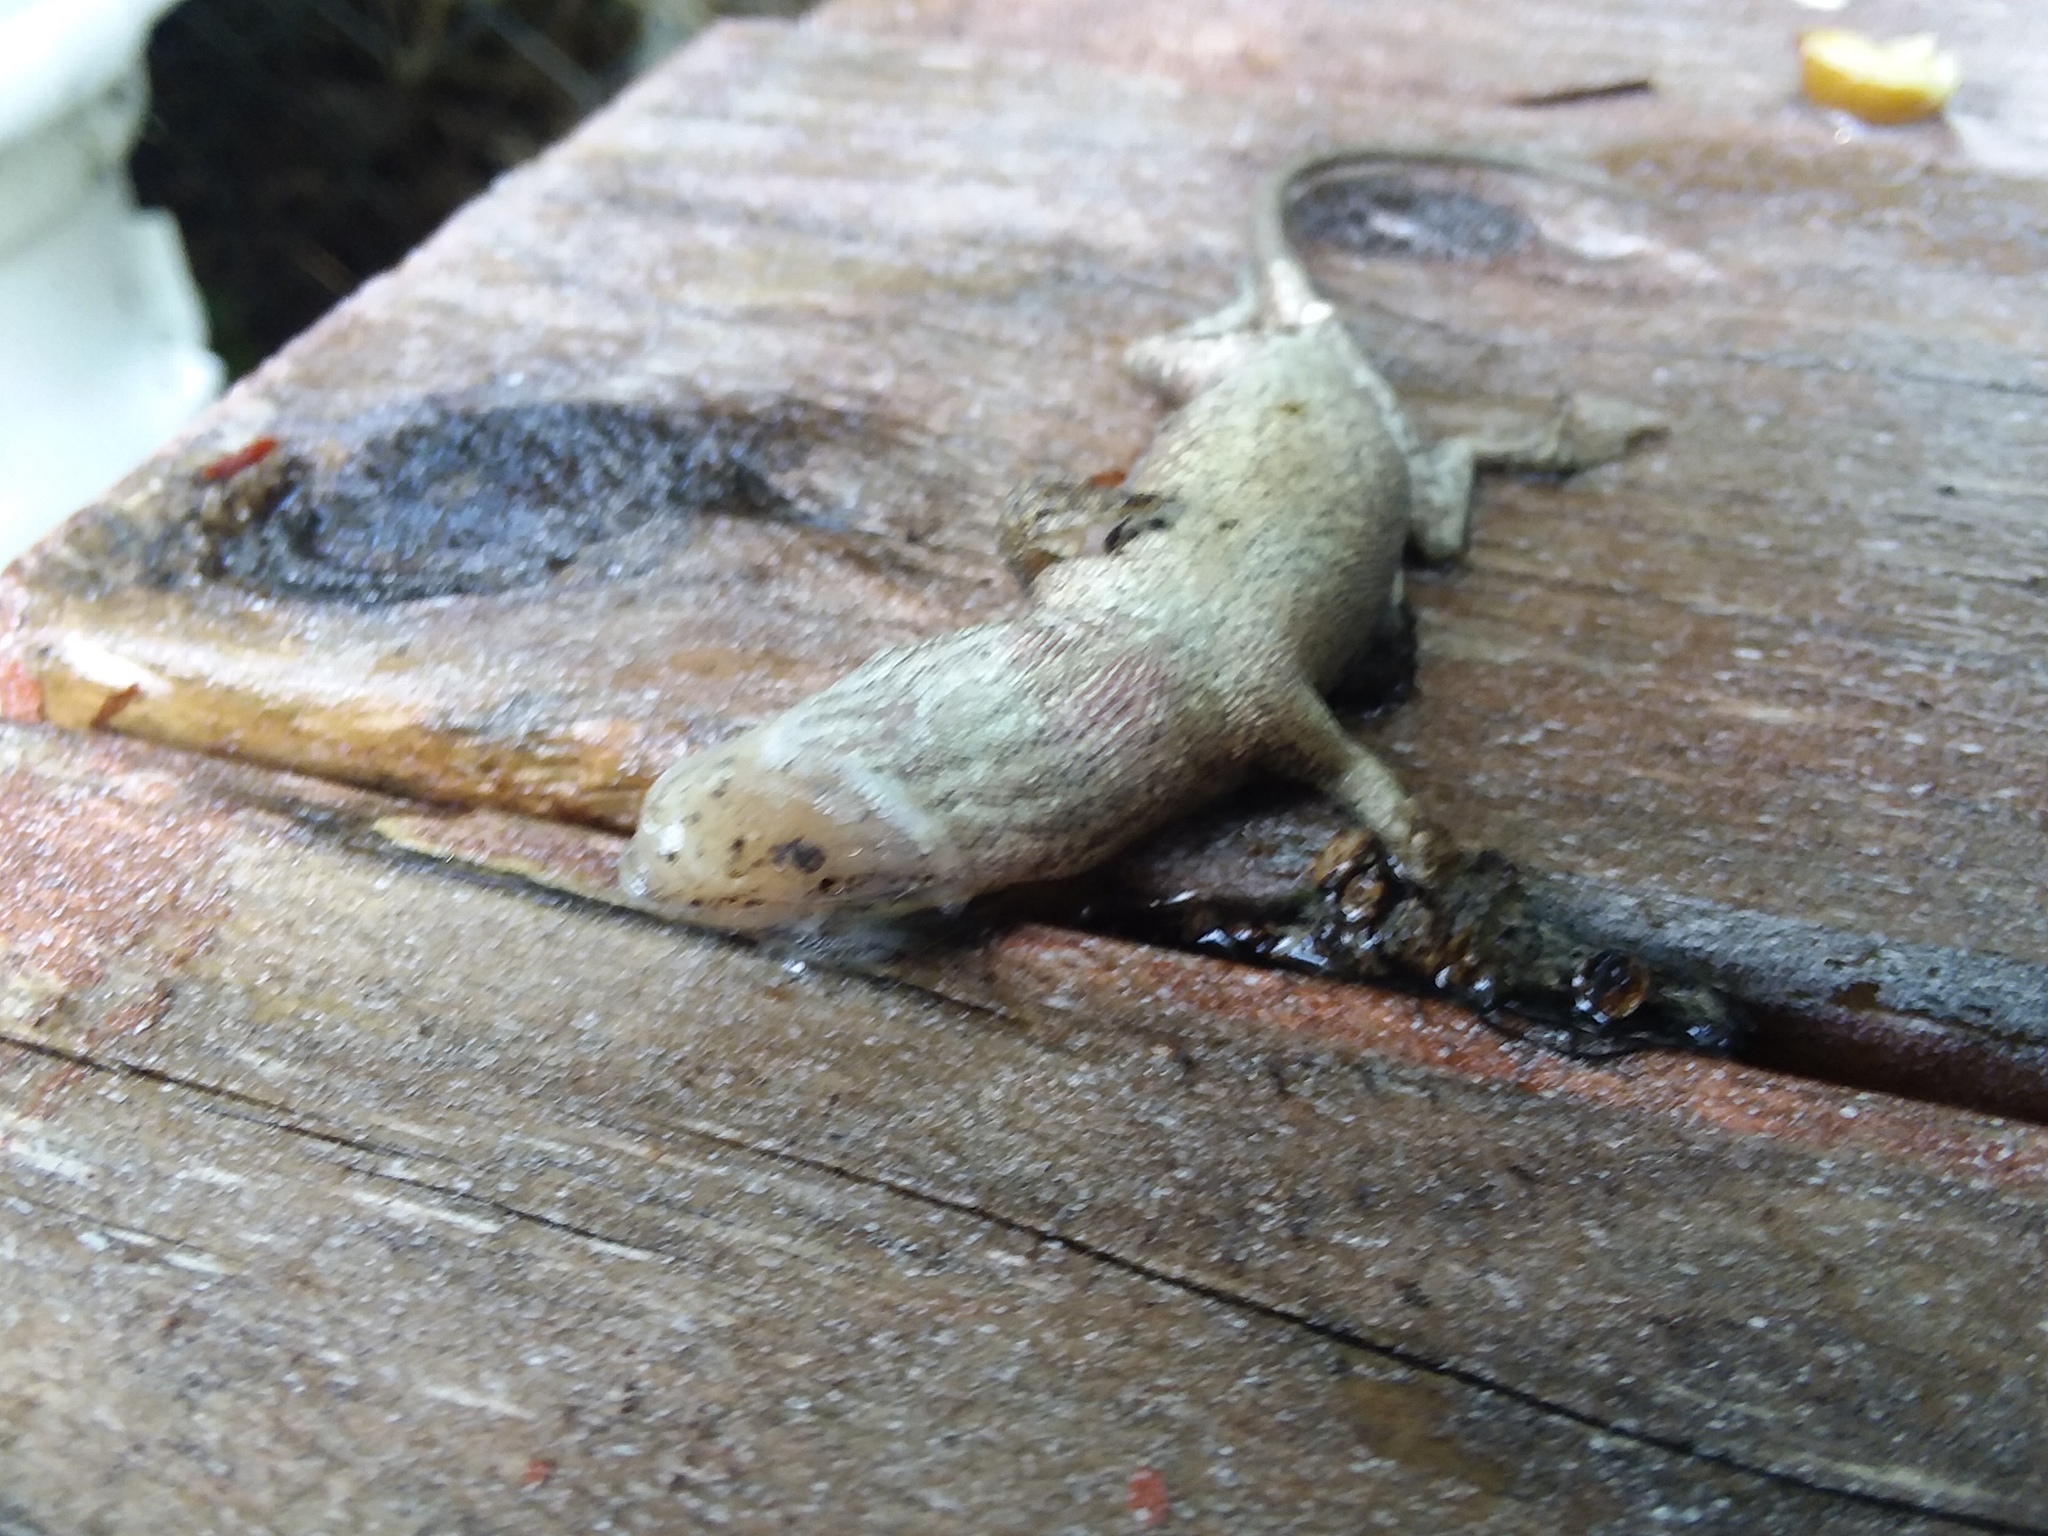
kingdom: Animalia
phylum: Chordata
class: Squamata
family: Dactyloidae
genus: Anolis
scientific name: Anolis carolinensis
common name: Green anole
